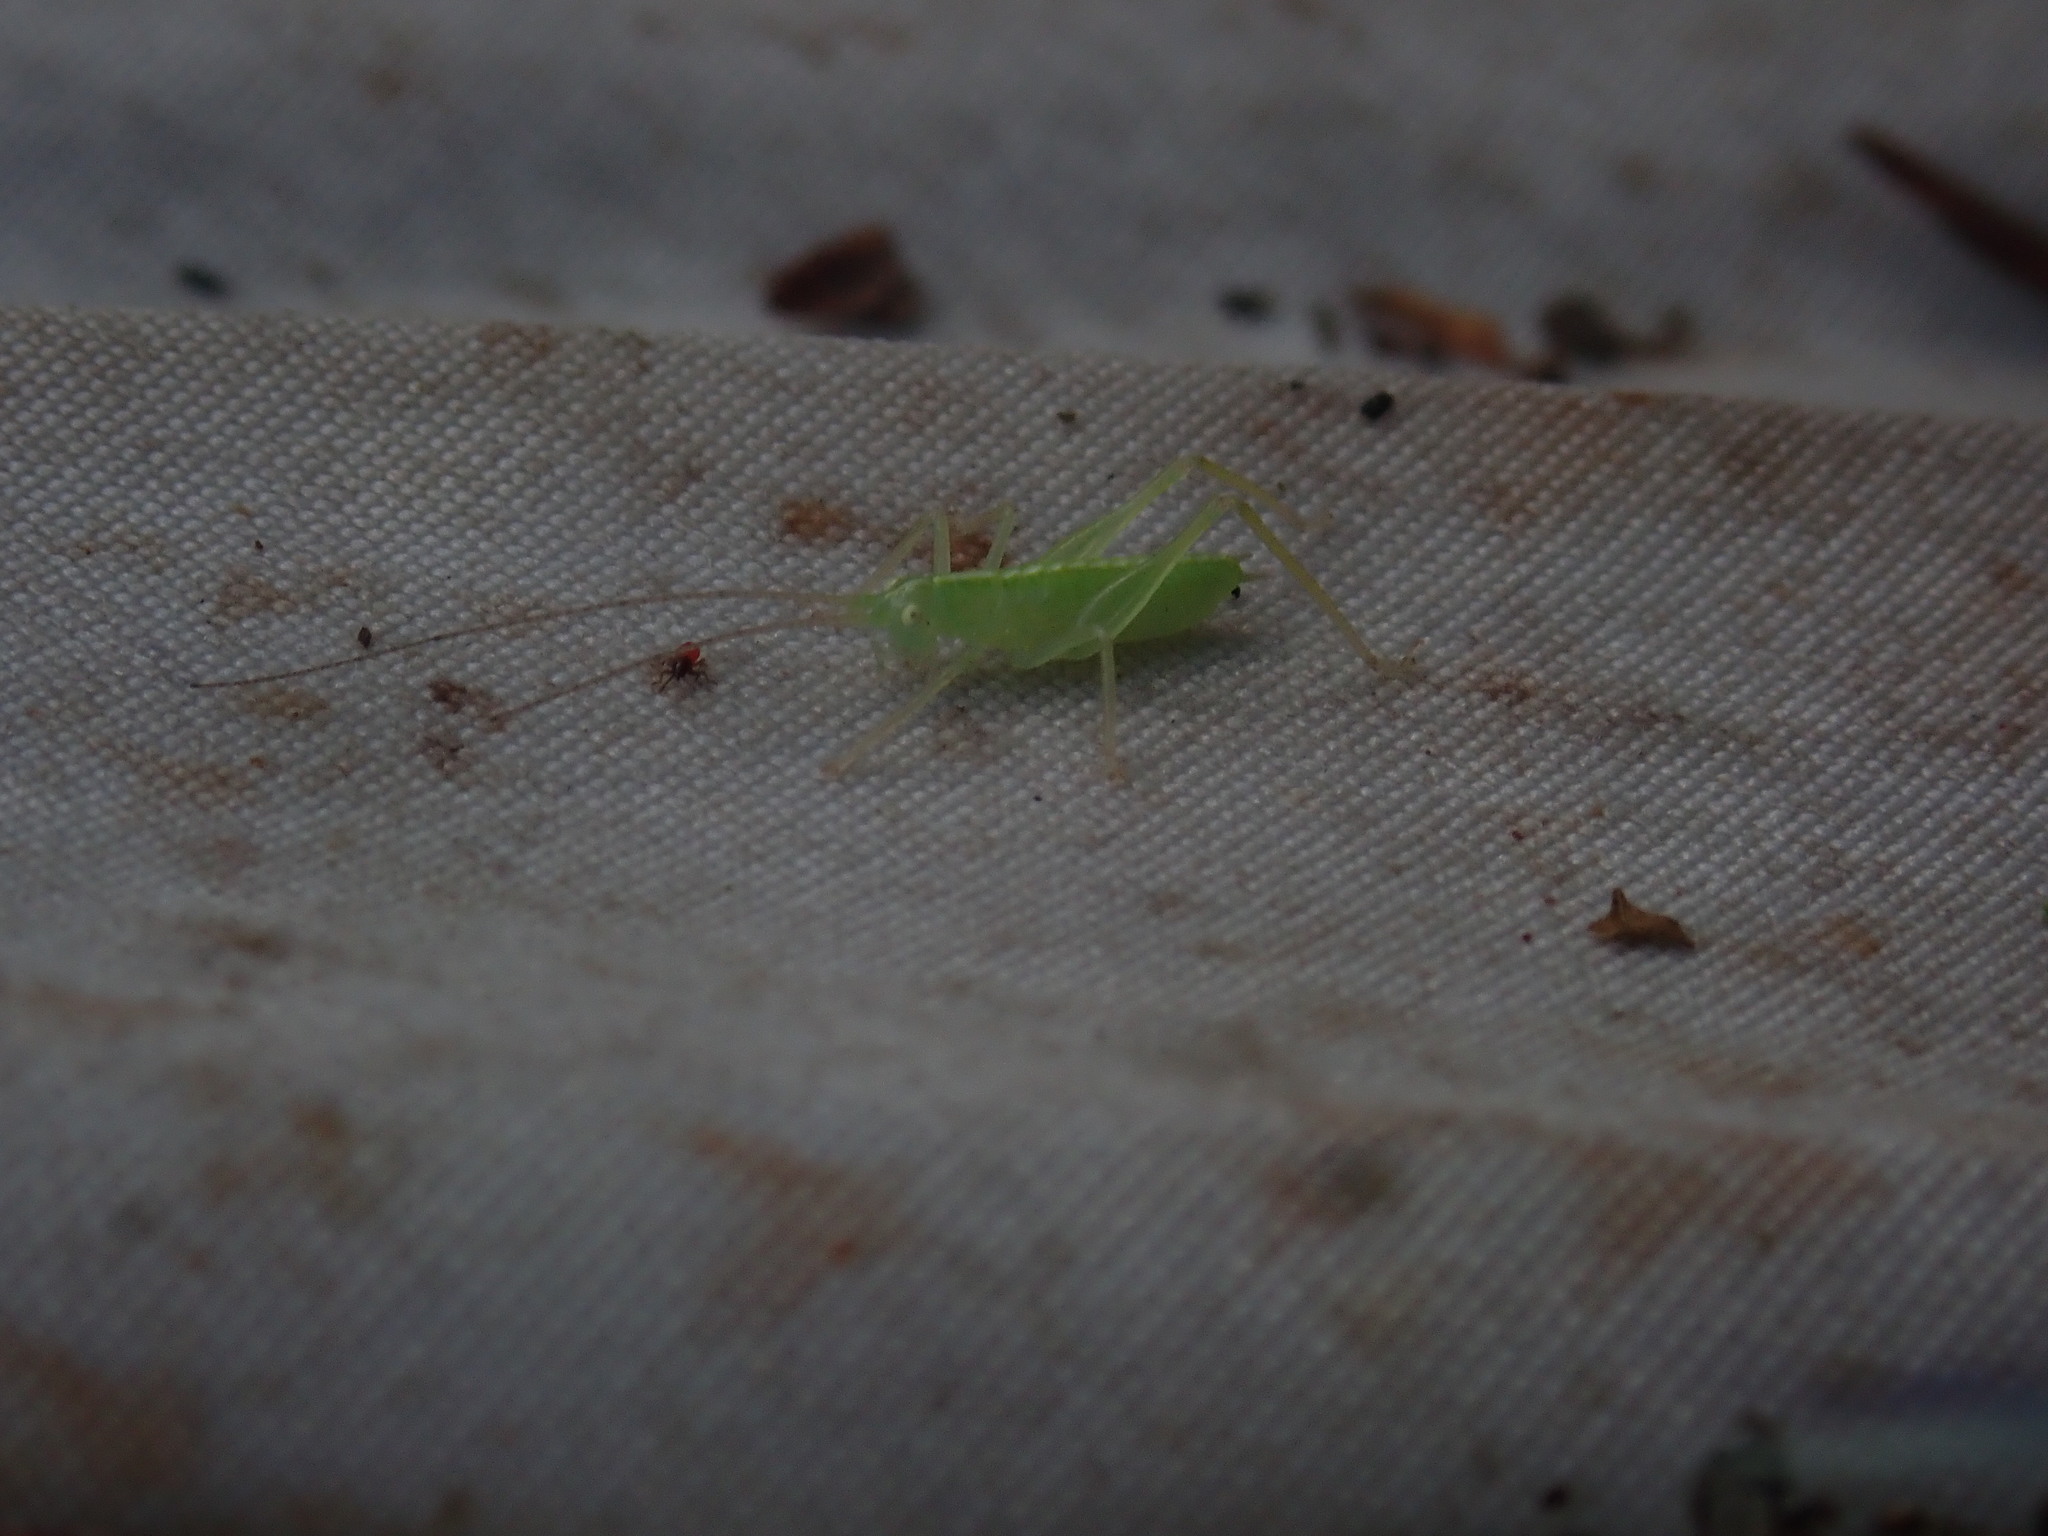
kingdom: Animalia
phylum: Arthropoda
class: Insecta
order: Orthoptera
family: Tettigoniidae
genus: Meconema
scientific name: Meconema
